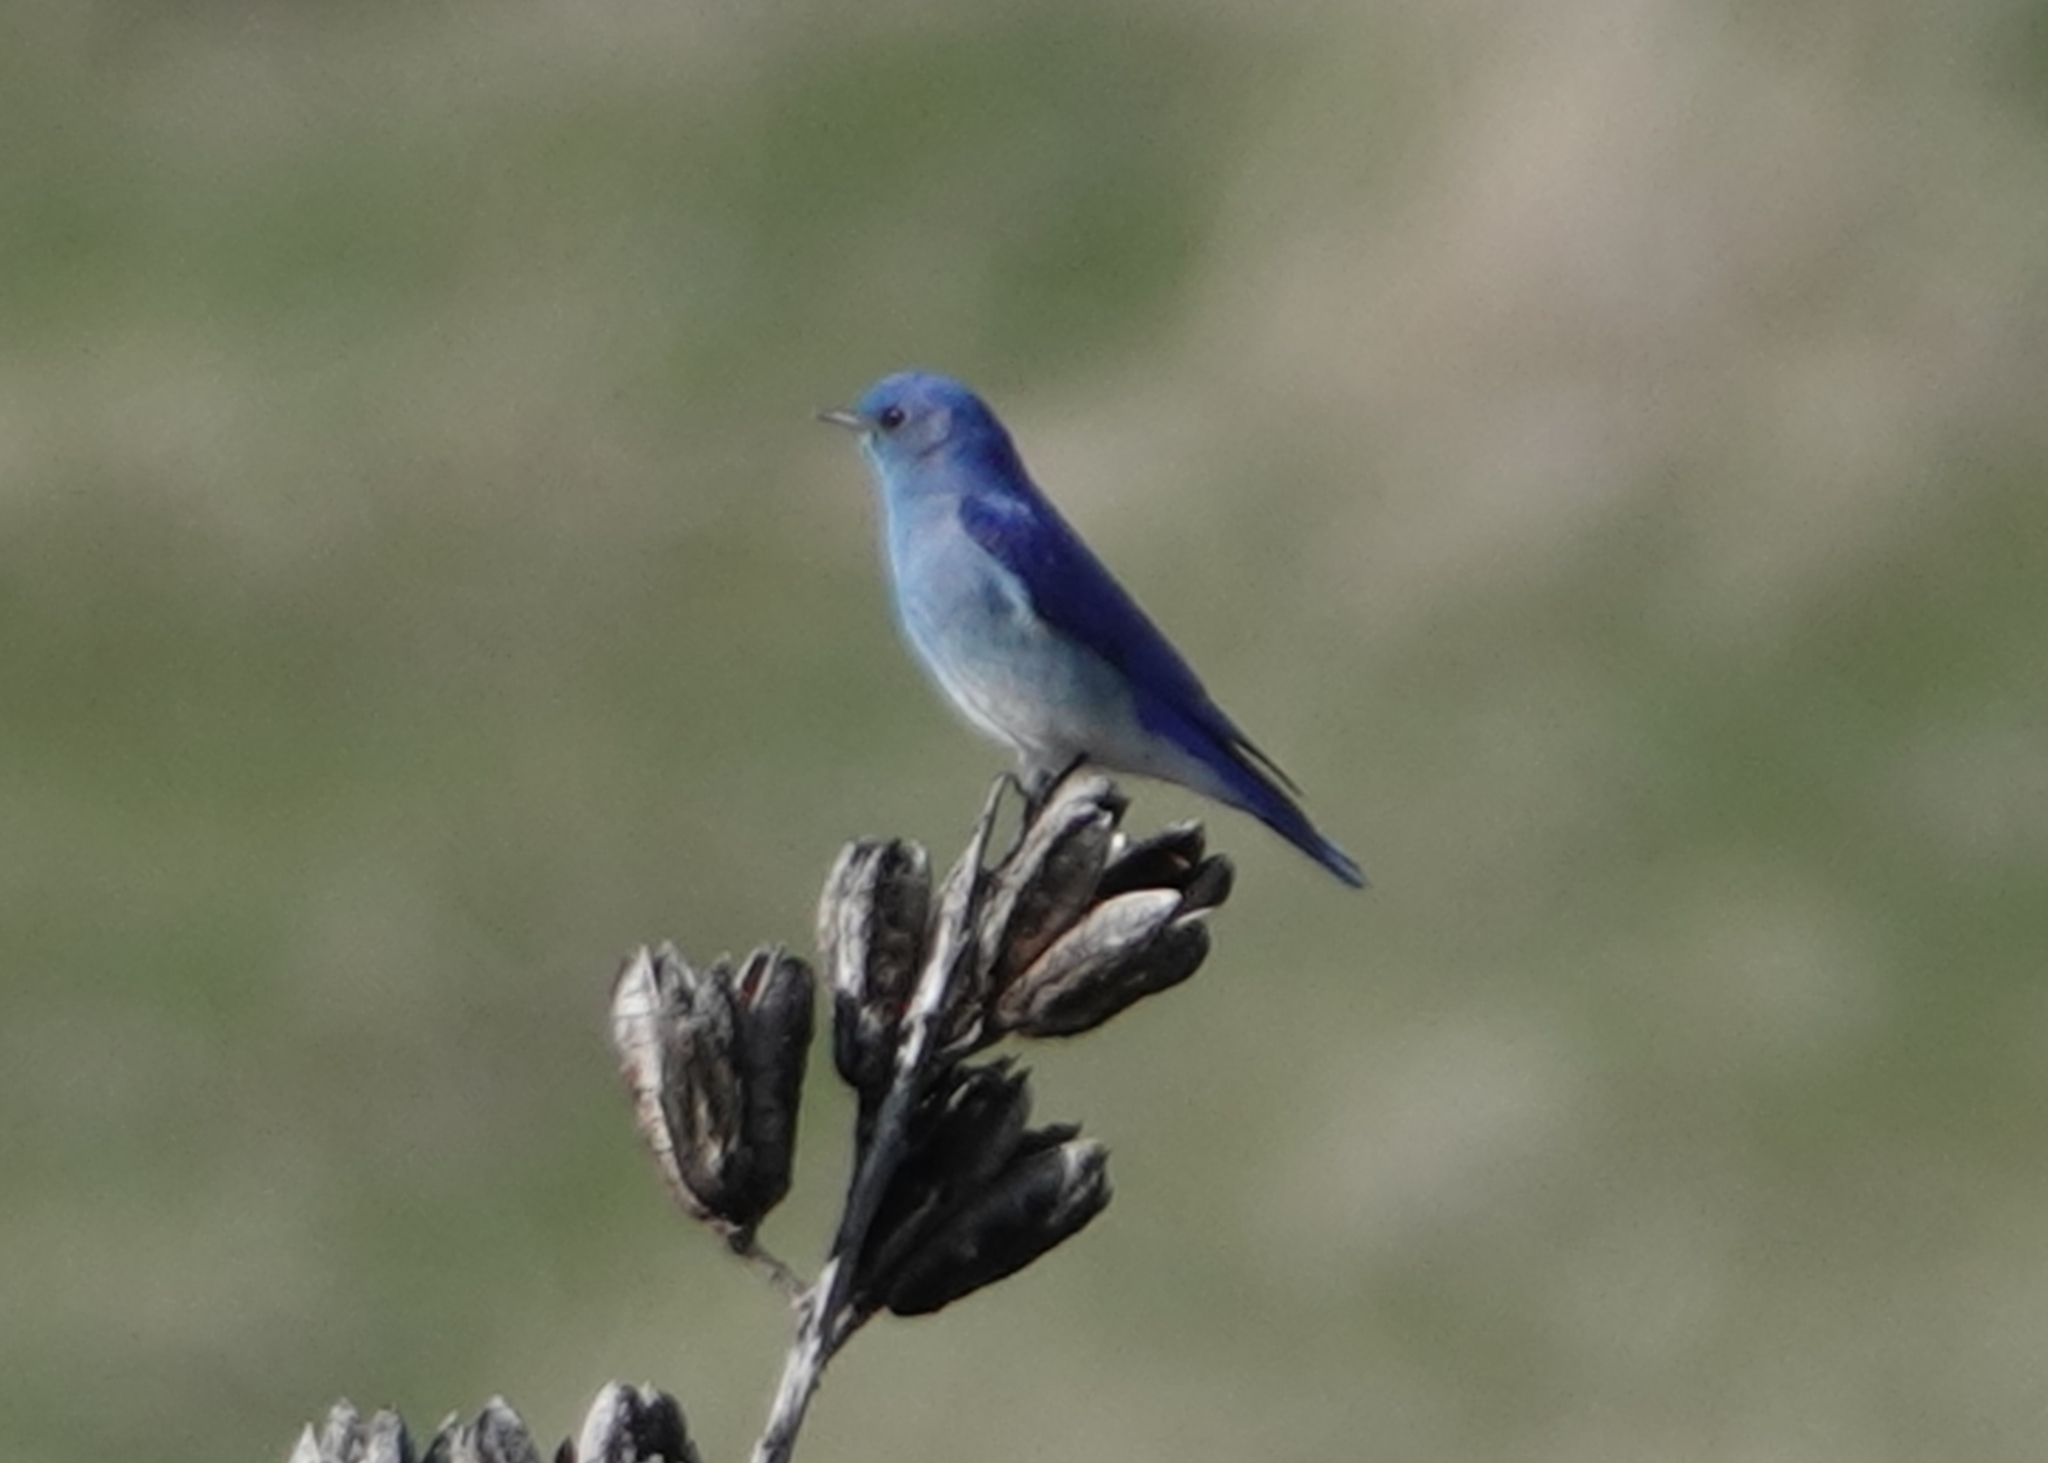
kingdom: Animalia
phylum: Chordata
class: Aves
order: Passeriformes
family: Turdidae
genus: Sialia
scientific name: Sialia currucoides
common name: Mountain bluebird
